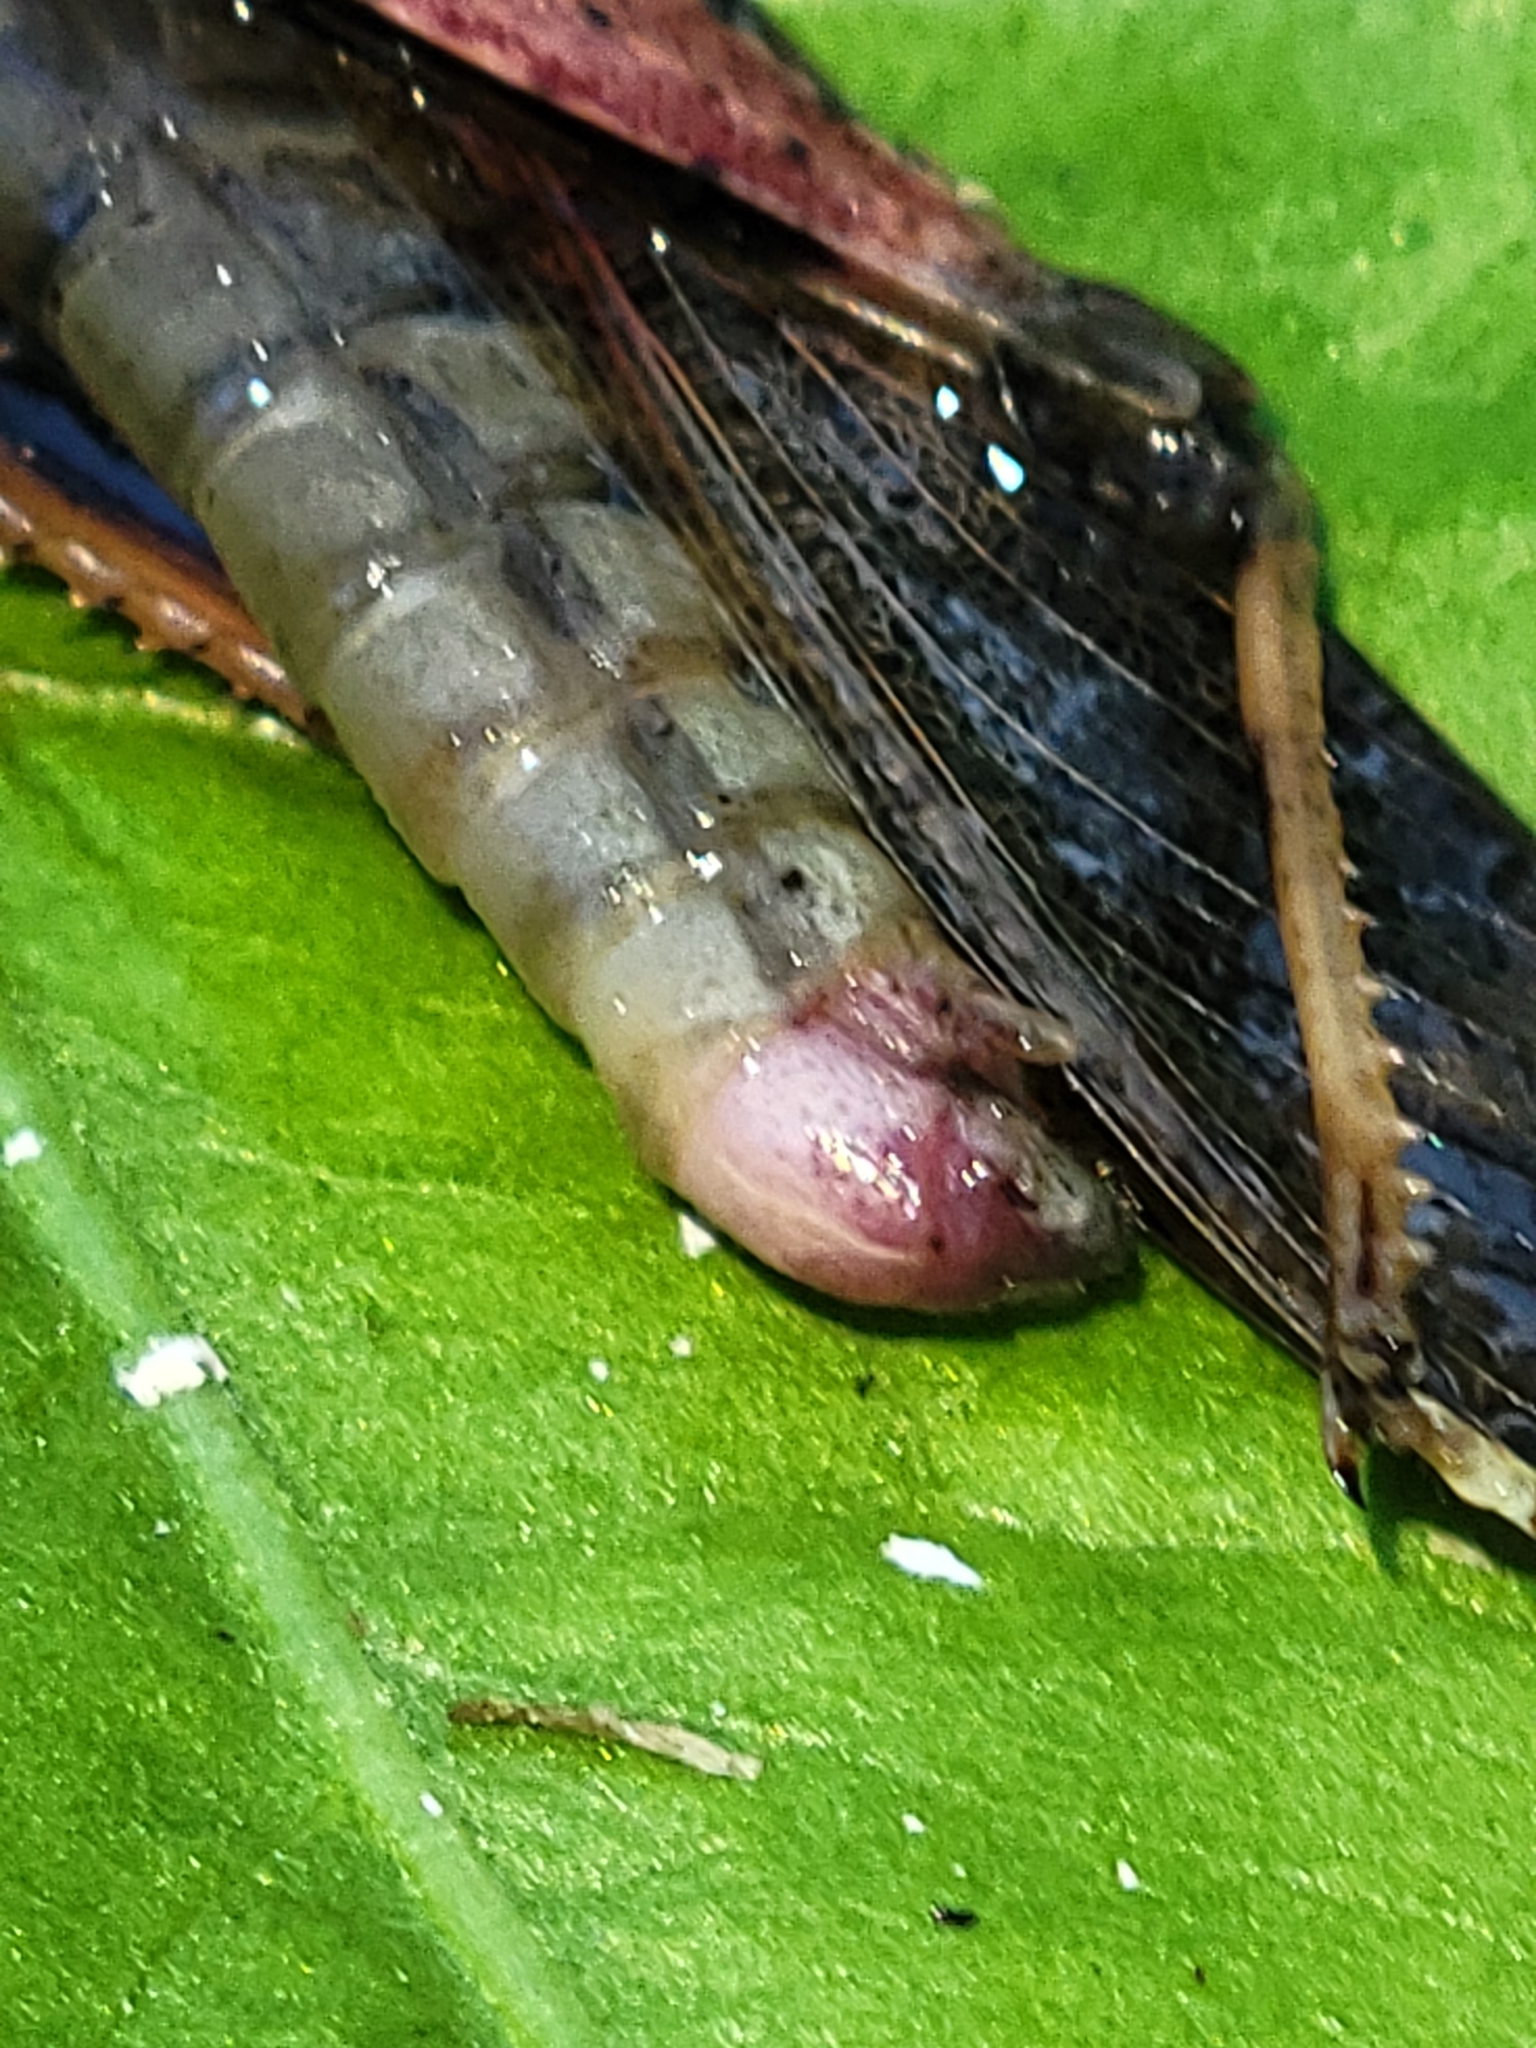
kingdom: Animalia
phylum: Arthropoda
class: Insecta
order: Orthoptera
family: Acrididae
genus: Dissosteira
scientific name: Dissosteira carolina
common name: Carolina grasshopper
